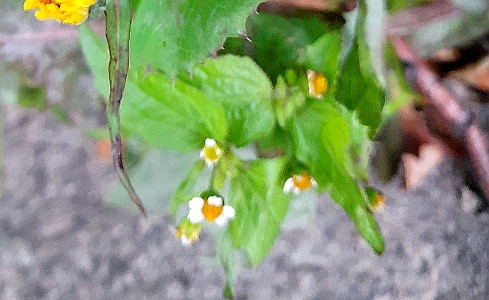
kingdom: Plantae
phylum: Tracheophyta
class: Magnoliopsida
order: Asterales
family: Asteraceae
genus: Galinsoga
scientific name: Galinsoga quadriradiata
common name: Shaggy soldier
